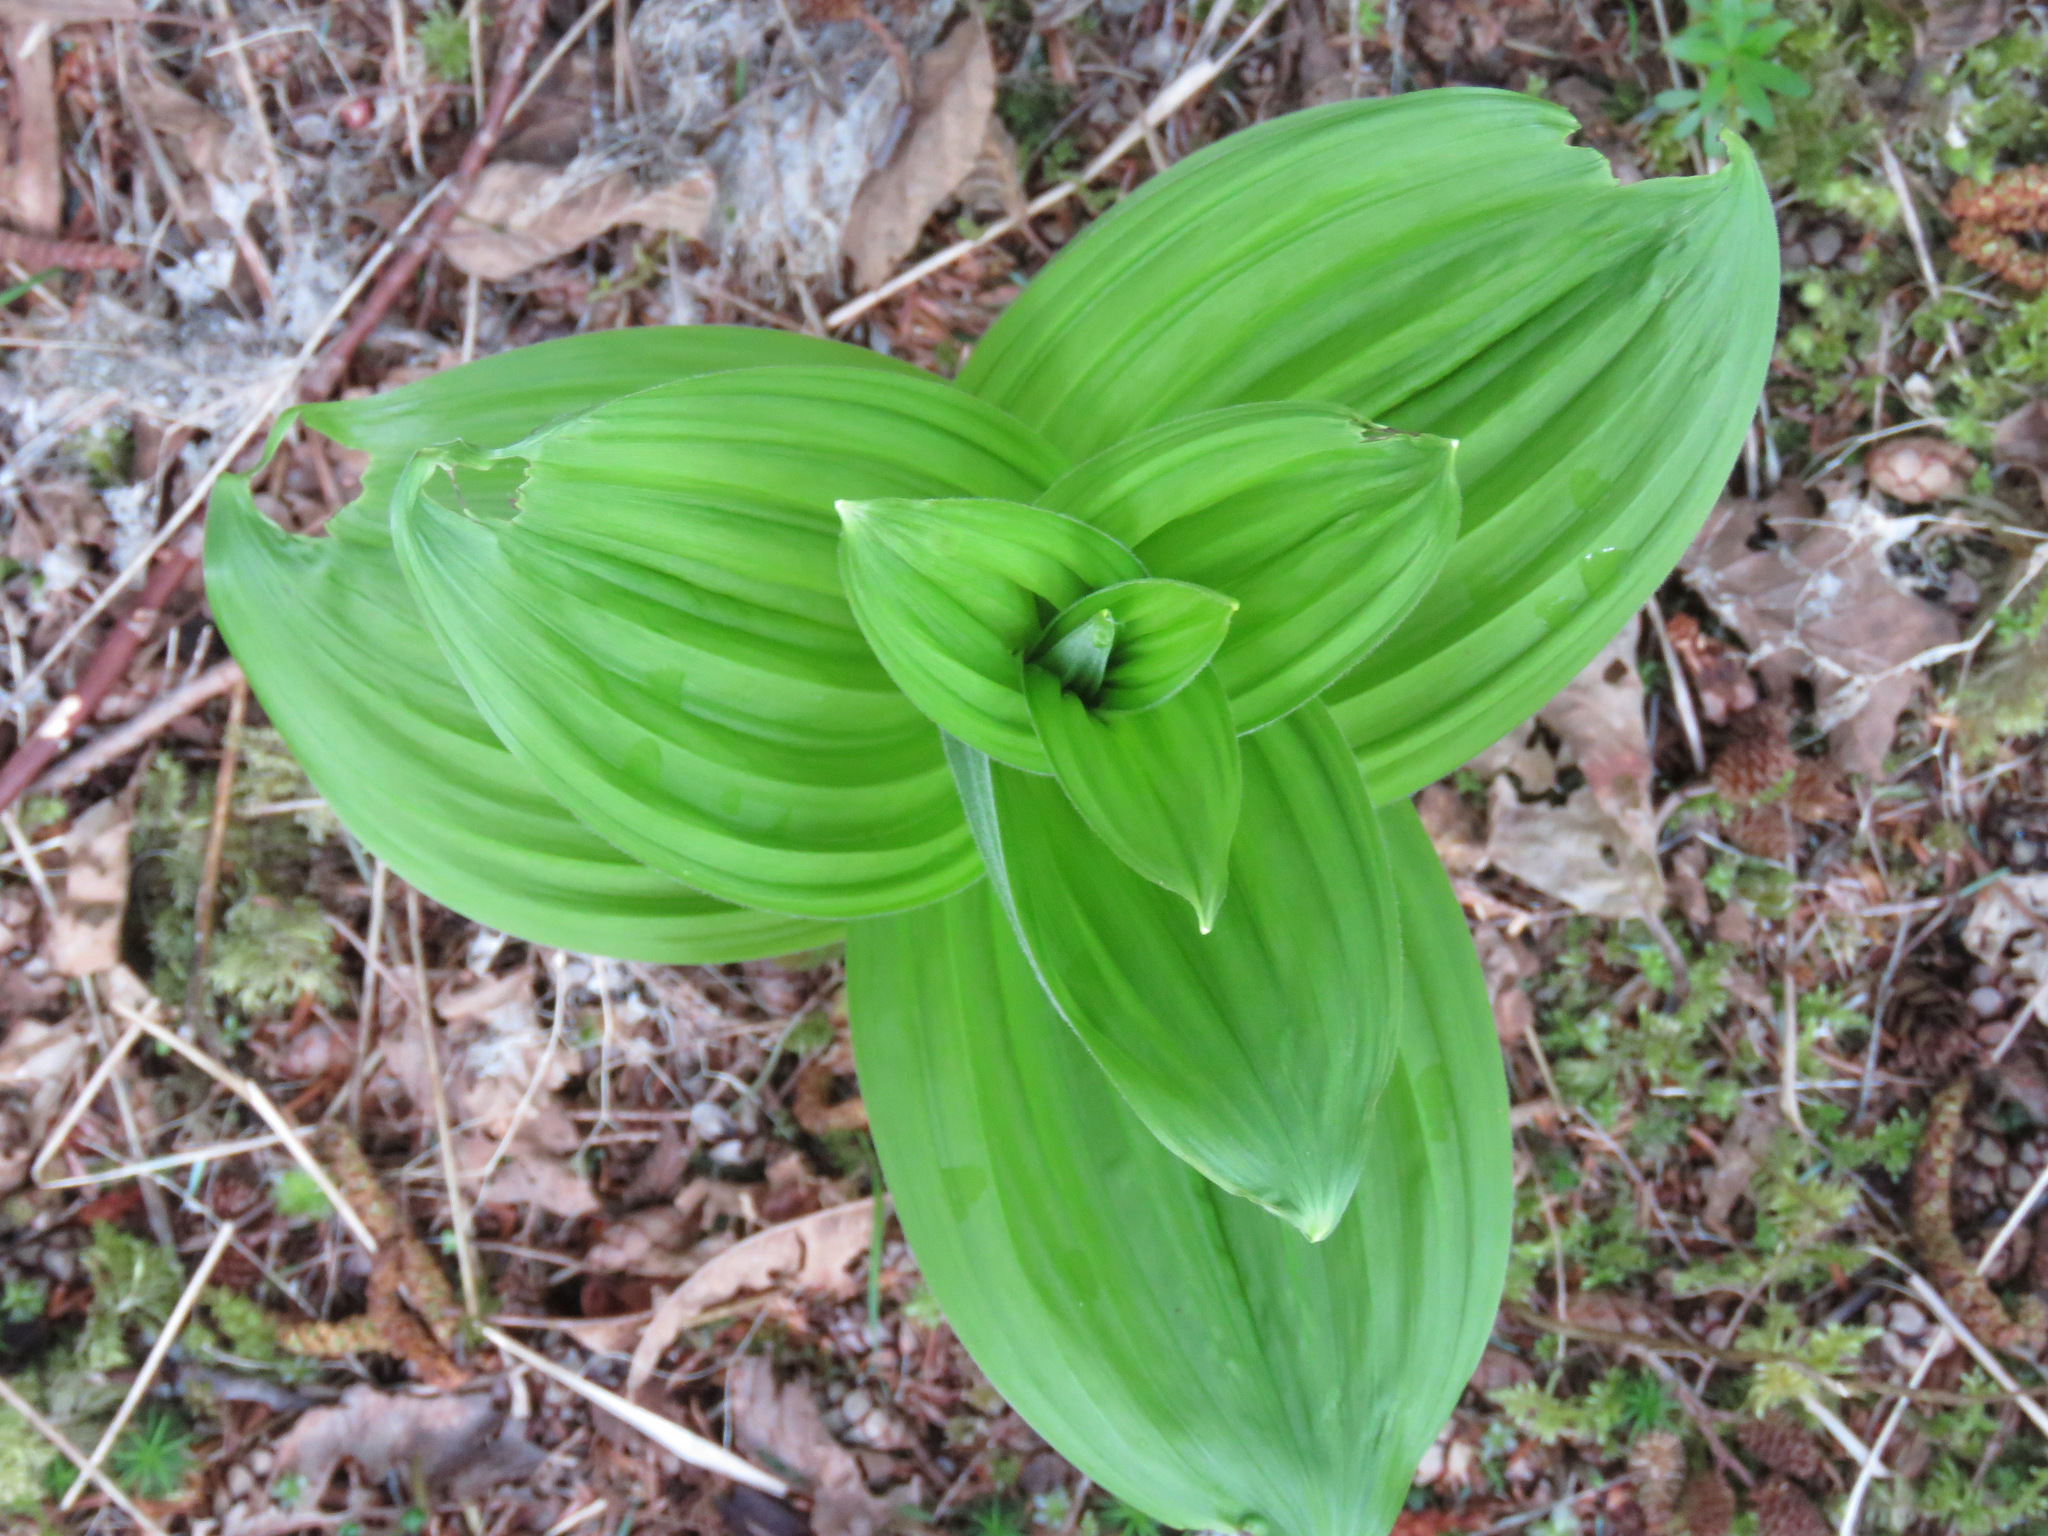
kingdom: Plantae
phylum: Tracheophyta
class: Liliopsida
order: Liliales
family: Melanthiaceae
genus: Veratrum
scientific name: Veratrum viride
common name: American false hellebore
